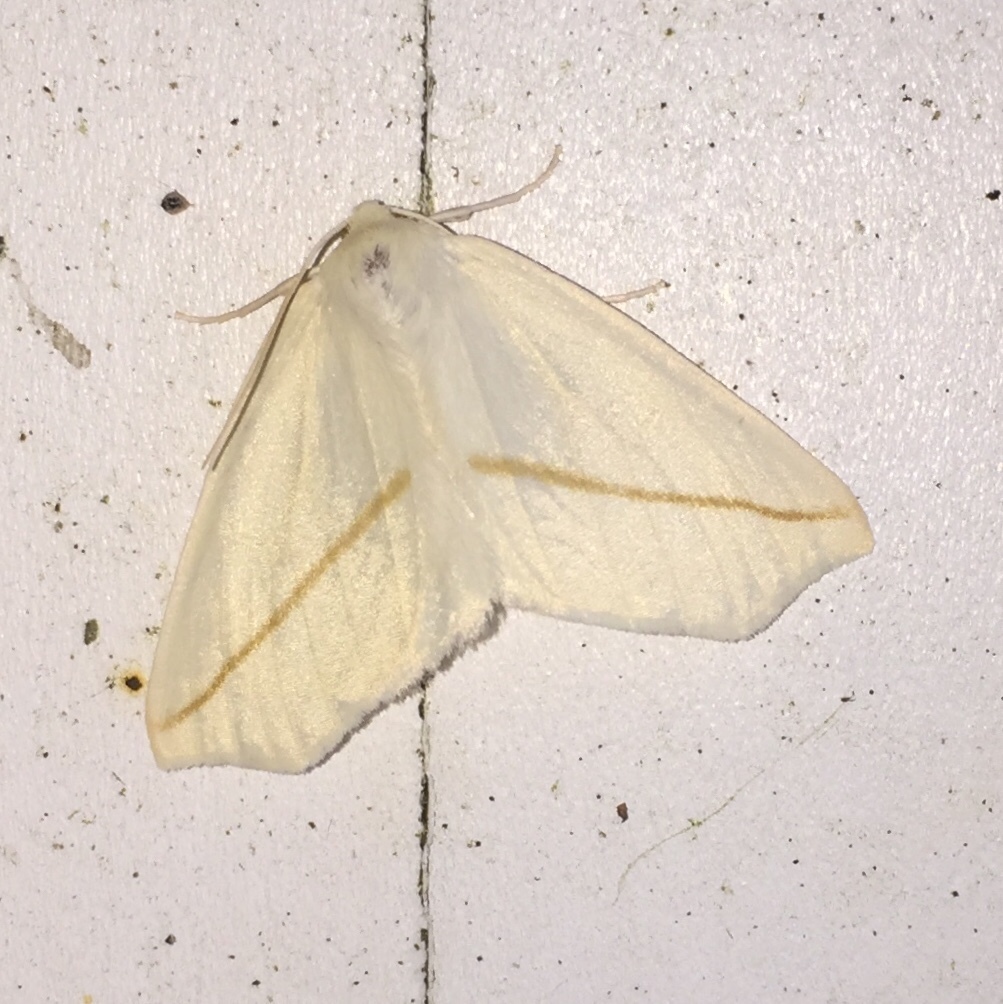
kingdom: Animalia
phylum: Arthropoda
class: Insecta
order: Lepidoptera
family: Geometridae
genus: Tetracis
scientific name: Tetracis cachexiata
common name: White slant-line
